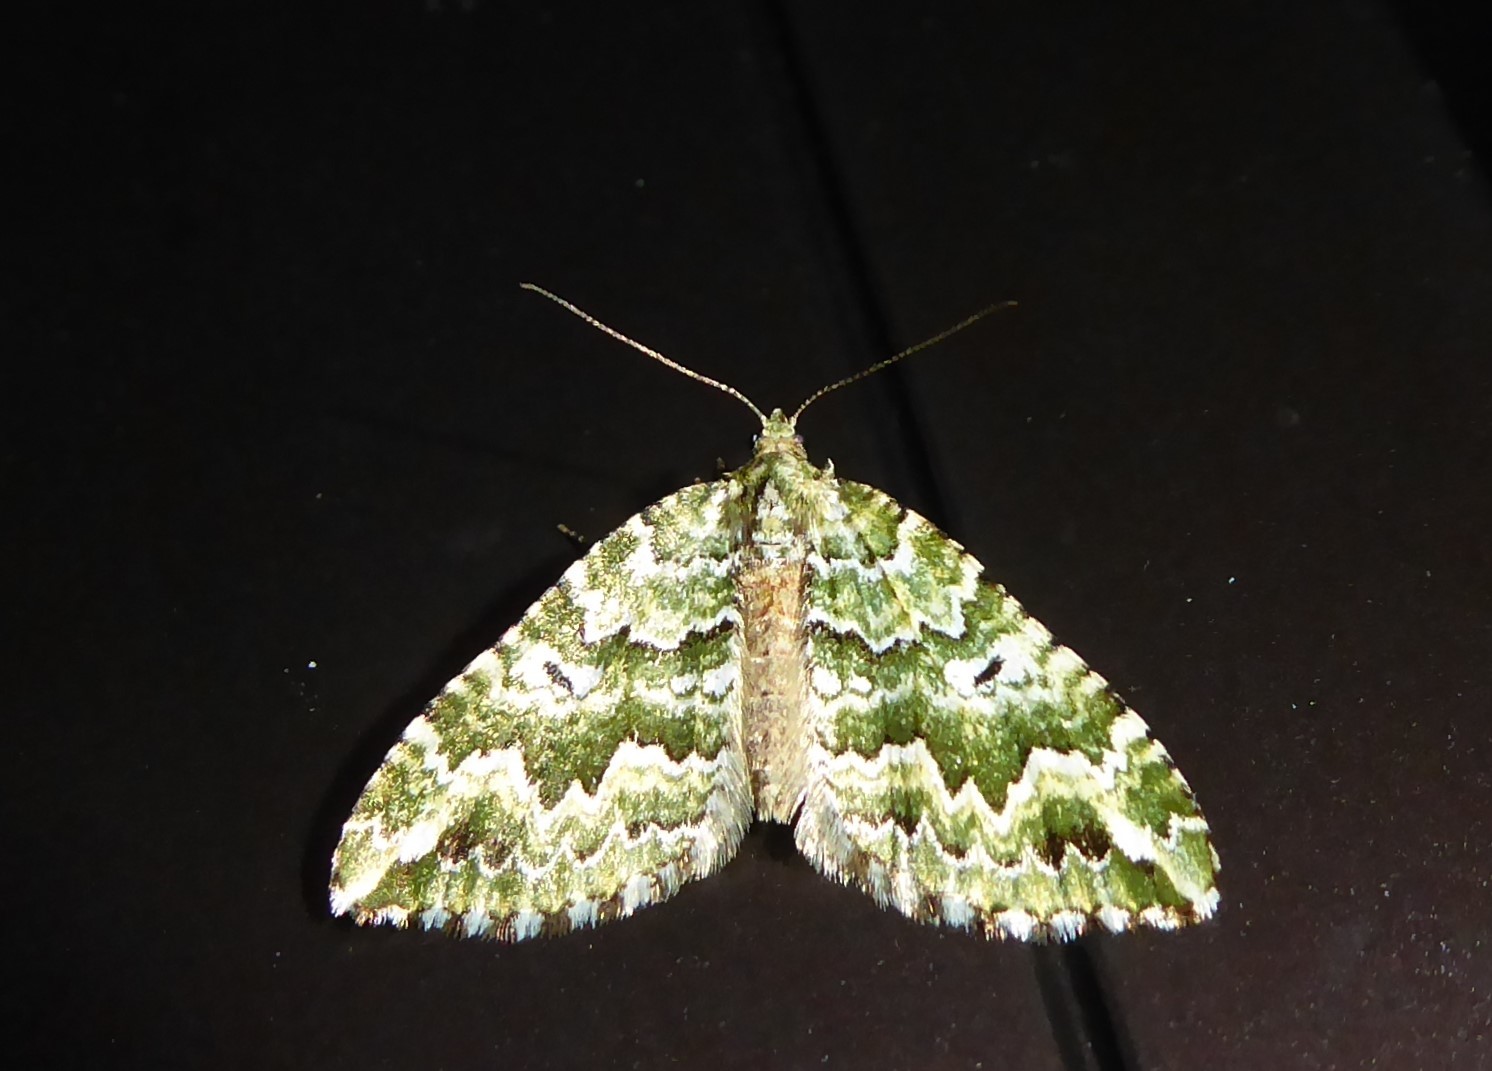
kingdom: Animalia
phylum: Arthropoda
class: Insecta
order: Lepidoptera
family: Geometridae
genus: Asaphodes
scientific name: Asaphodes beata
